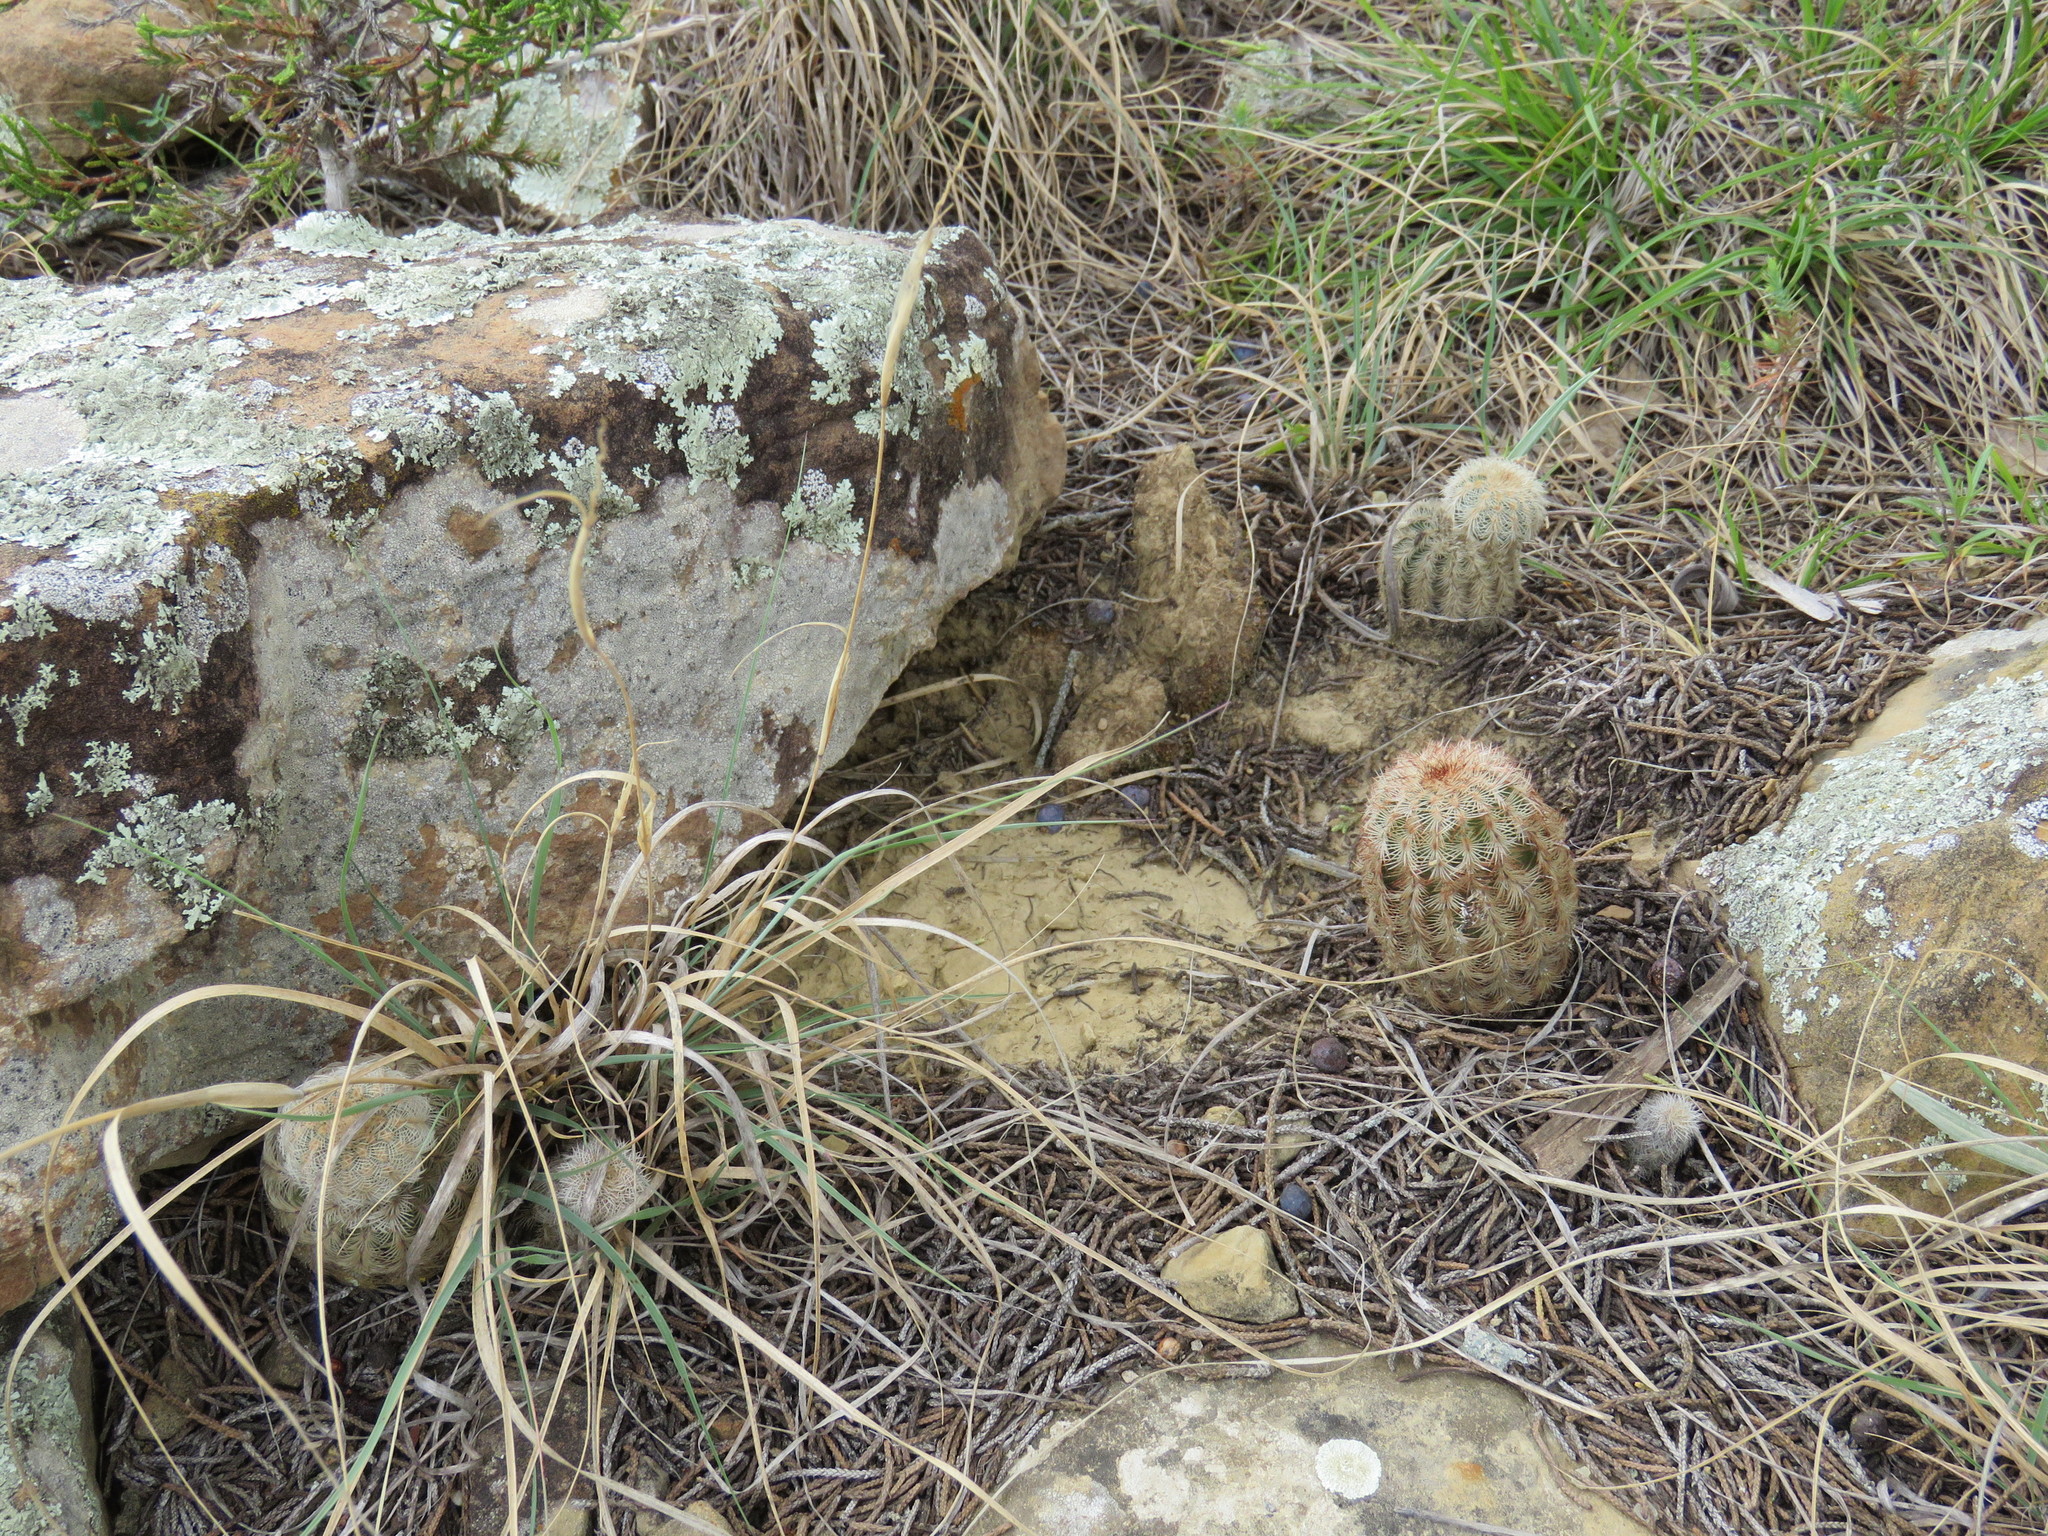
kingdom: Plantae
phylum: Tracheophyta
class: Magnoliopsida
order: Caryophyllales
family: Cactaceae
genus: Echinocereus
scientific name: Echinocereus reichenbachii
